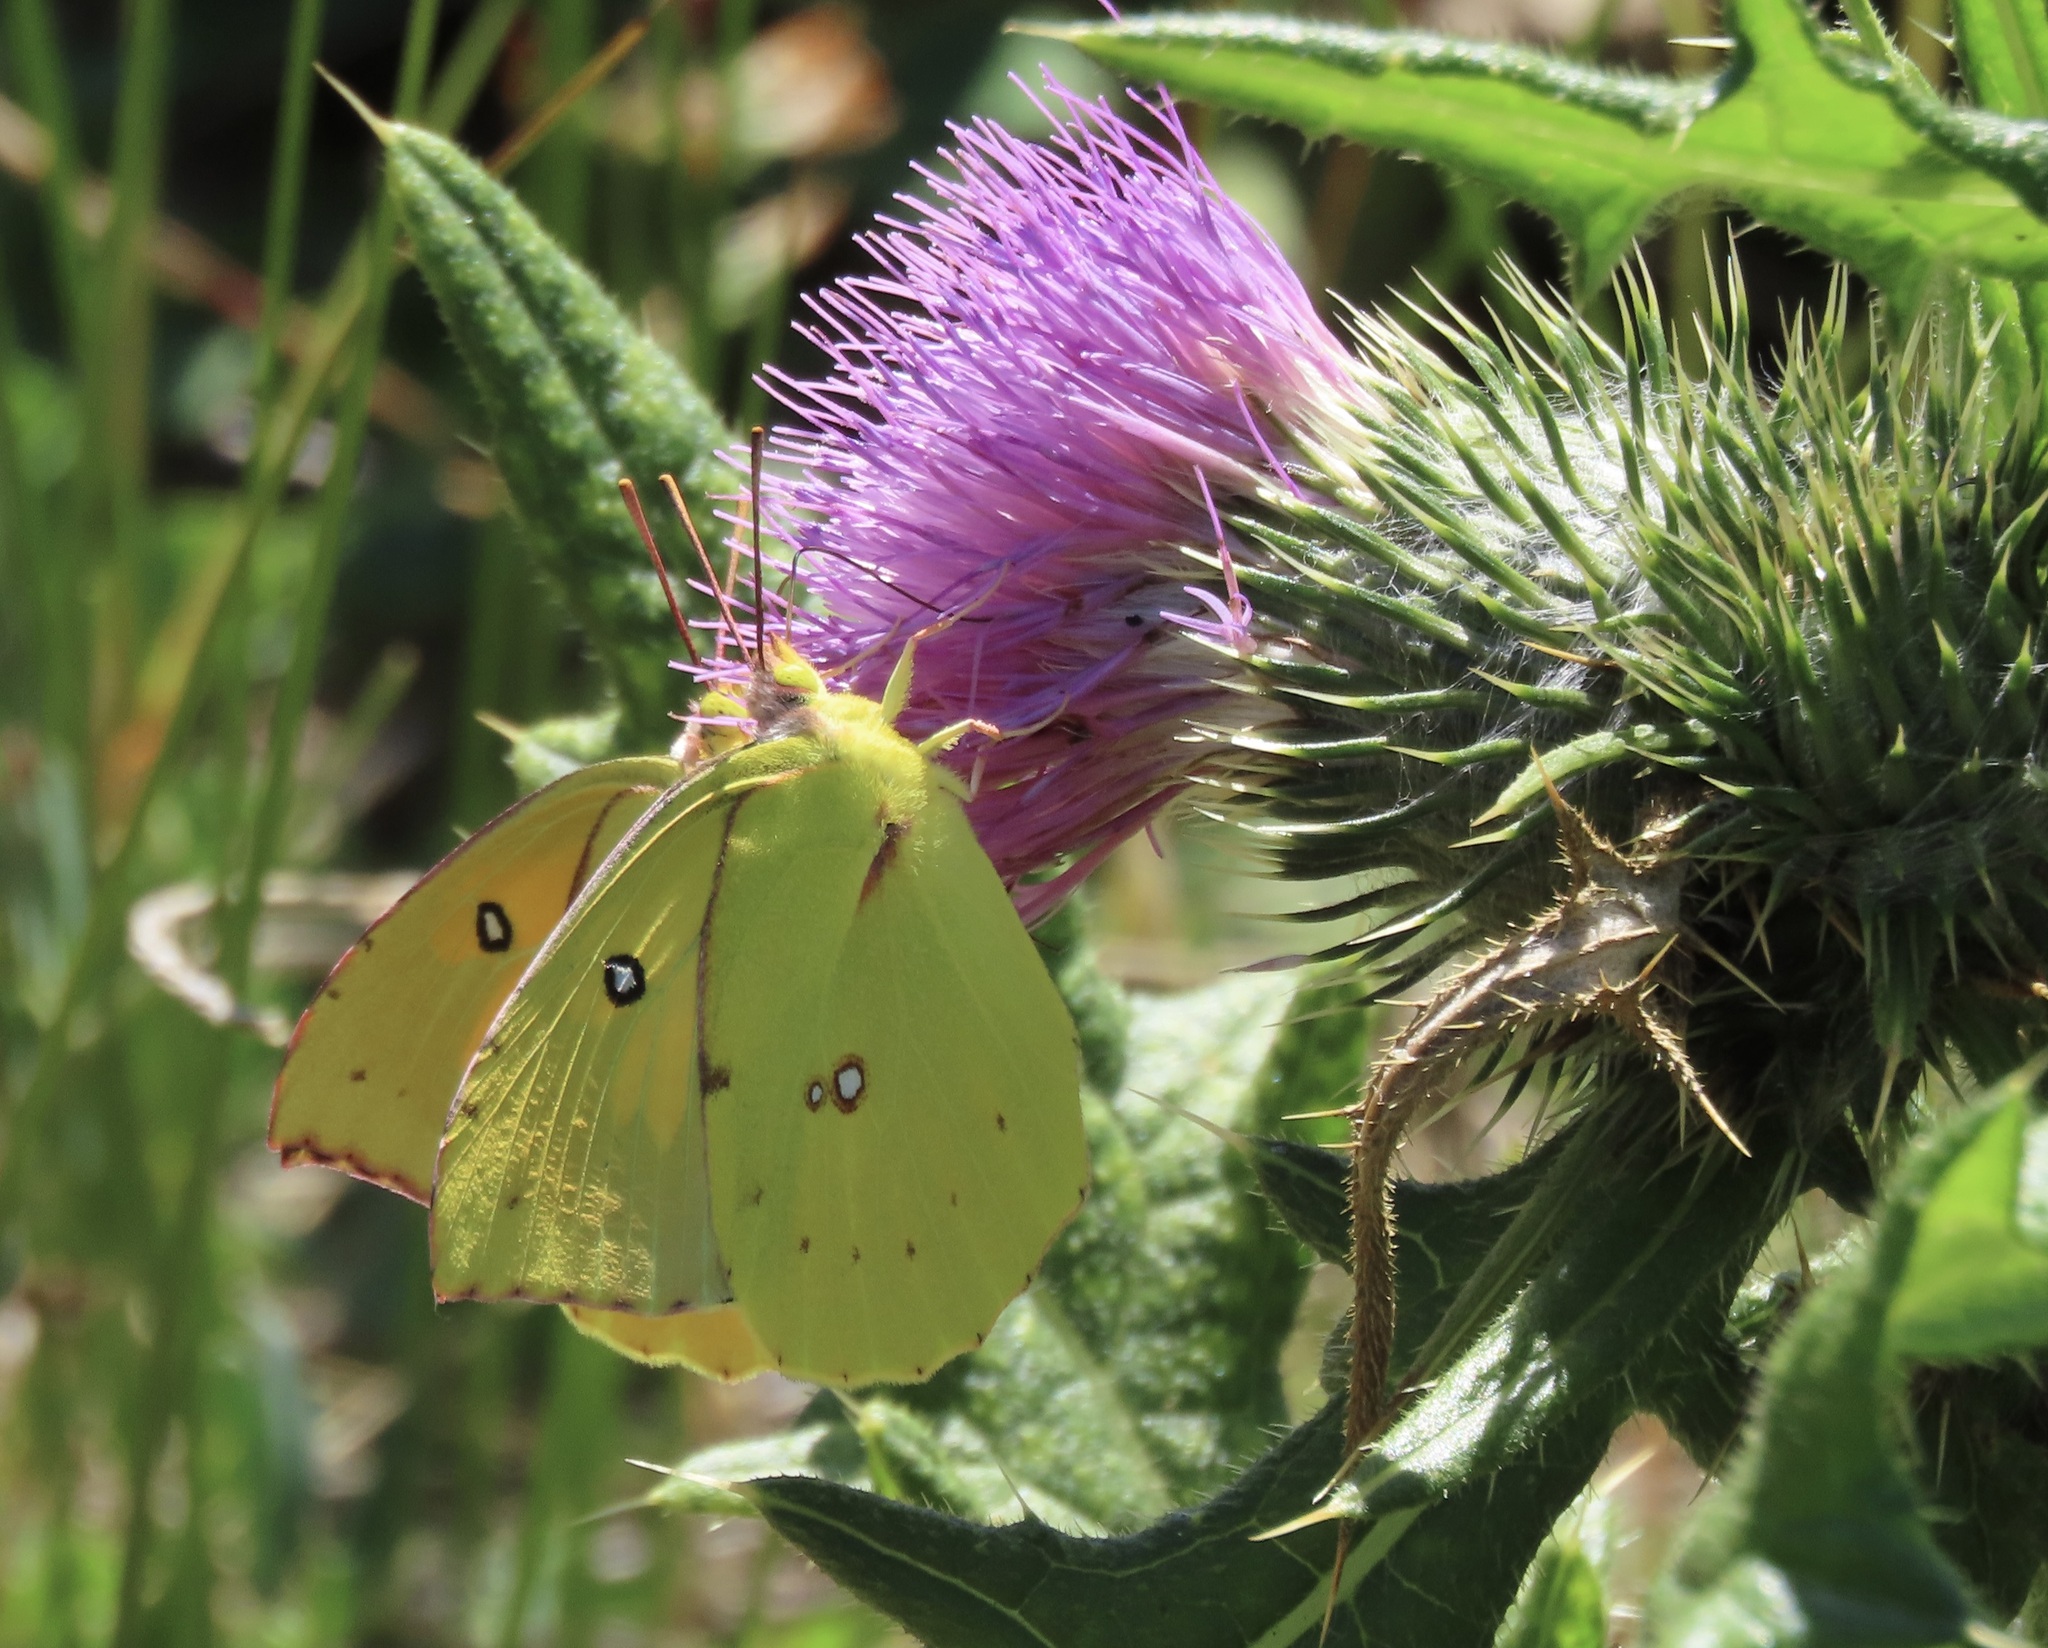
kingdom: Animalia
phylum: Arthropoda
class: Insecta
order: Lepidoptera
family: Pieridae
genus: Zerene
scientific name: Zerene eurydice
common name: California dogface
